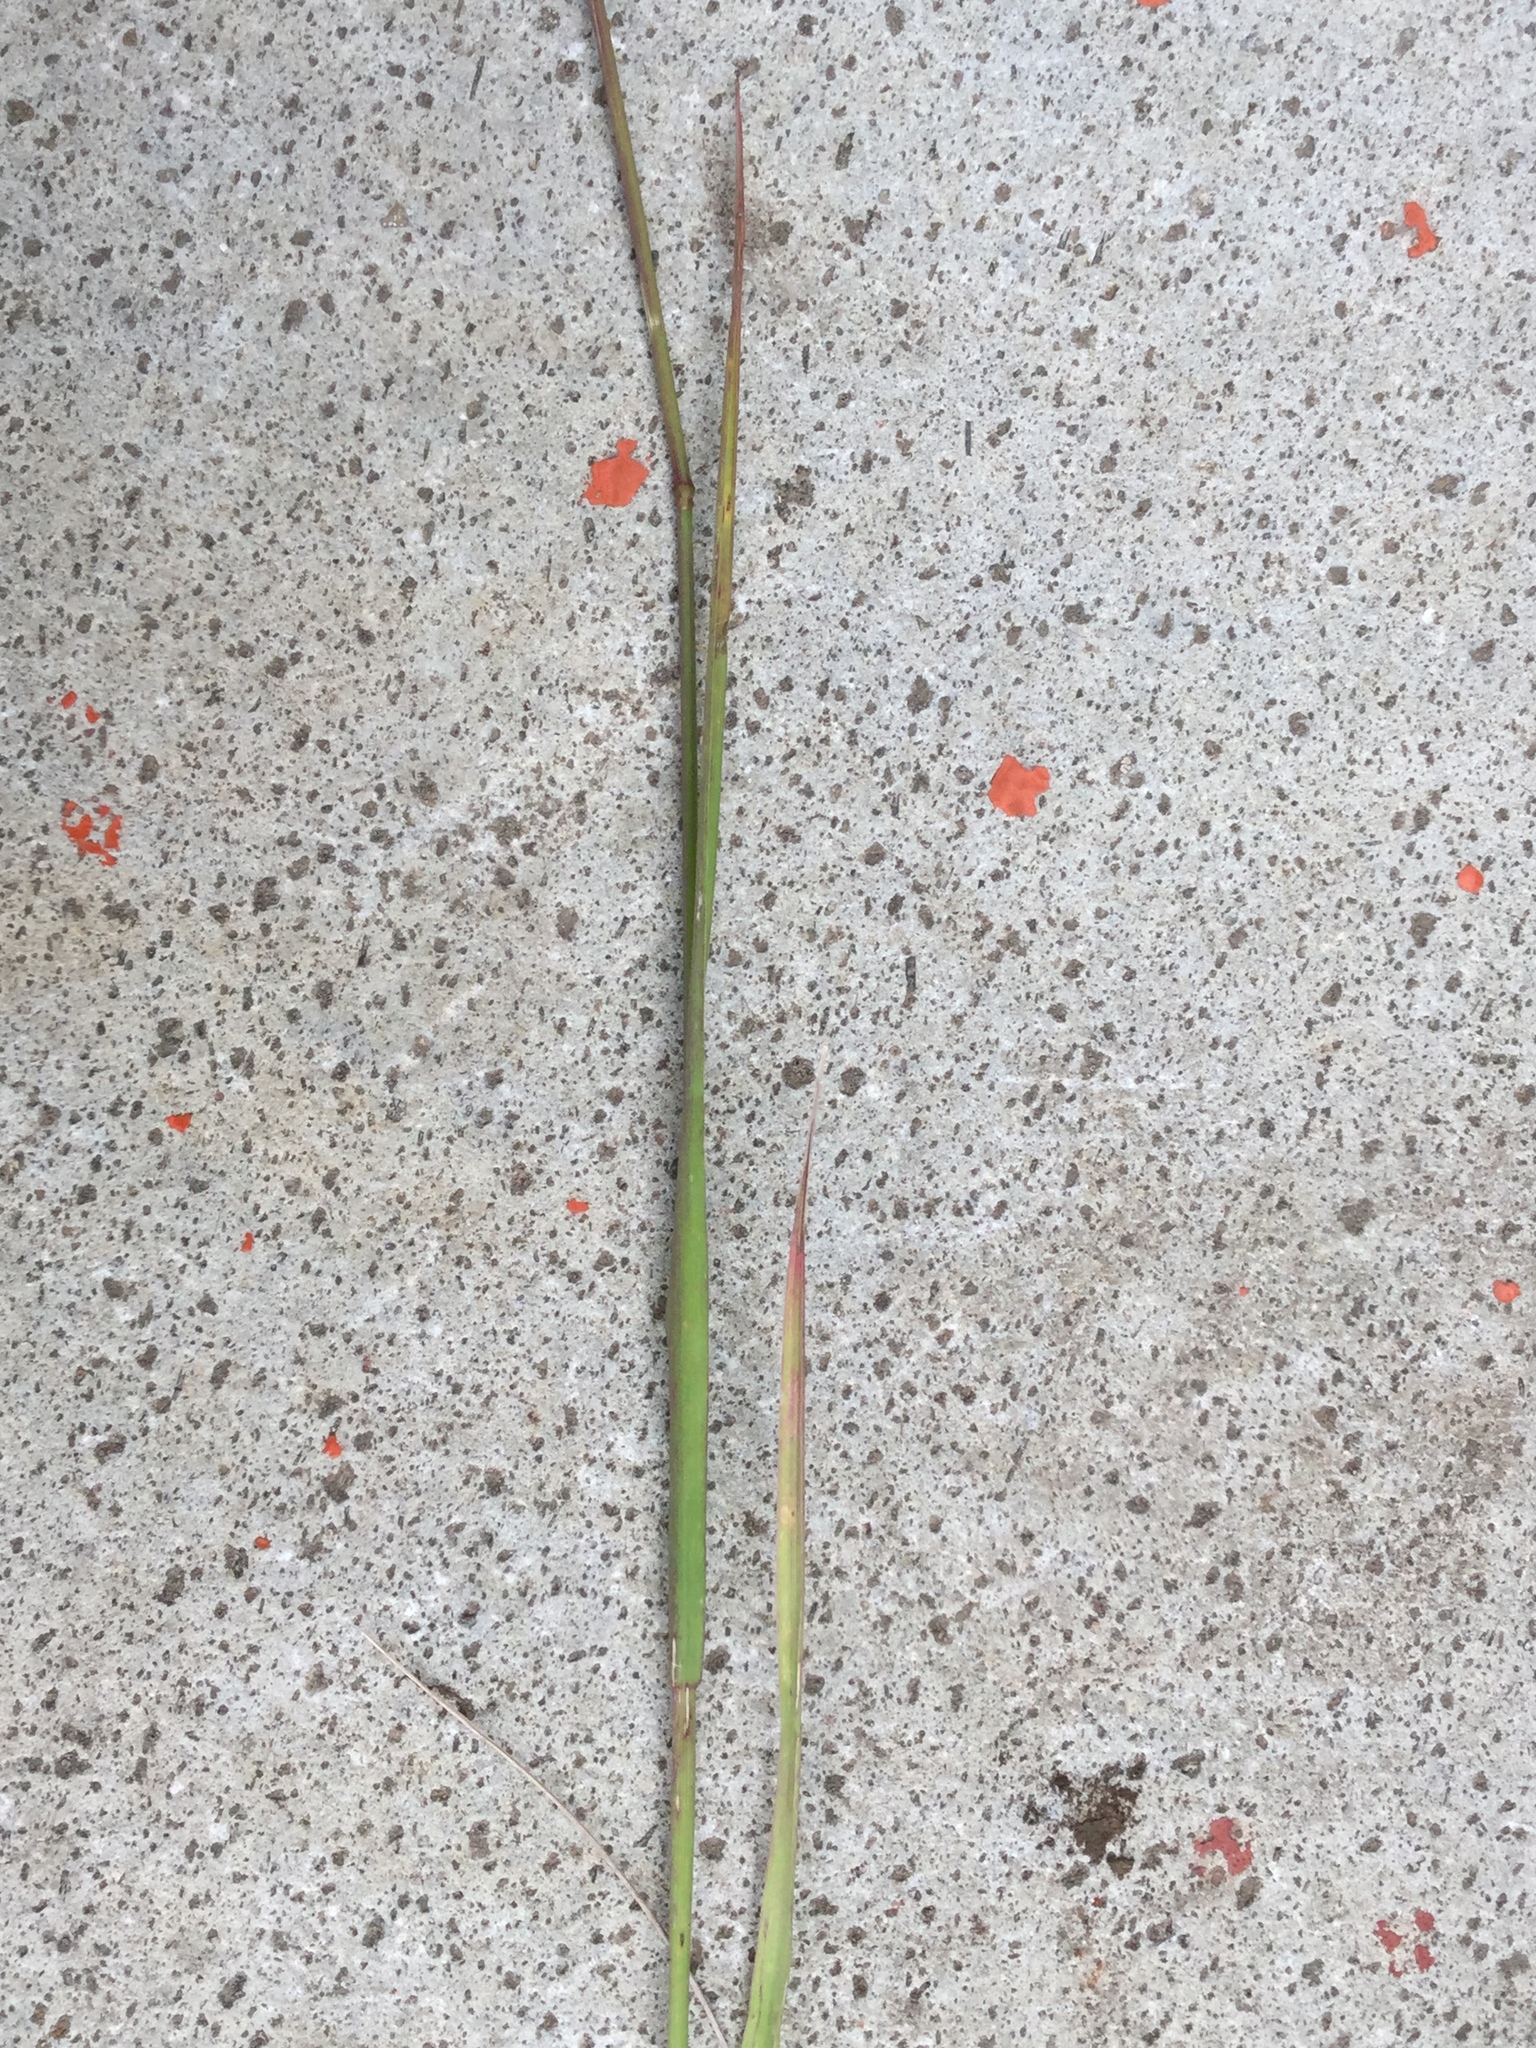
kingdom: Plantae
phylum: Tracheophyta
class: Liliopsida
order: Poales
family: Poaceae
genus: Bromus
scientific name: Bromus anomalus
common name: Nodding brome
